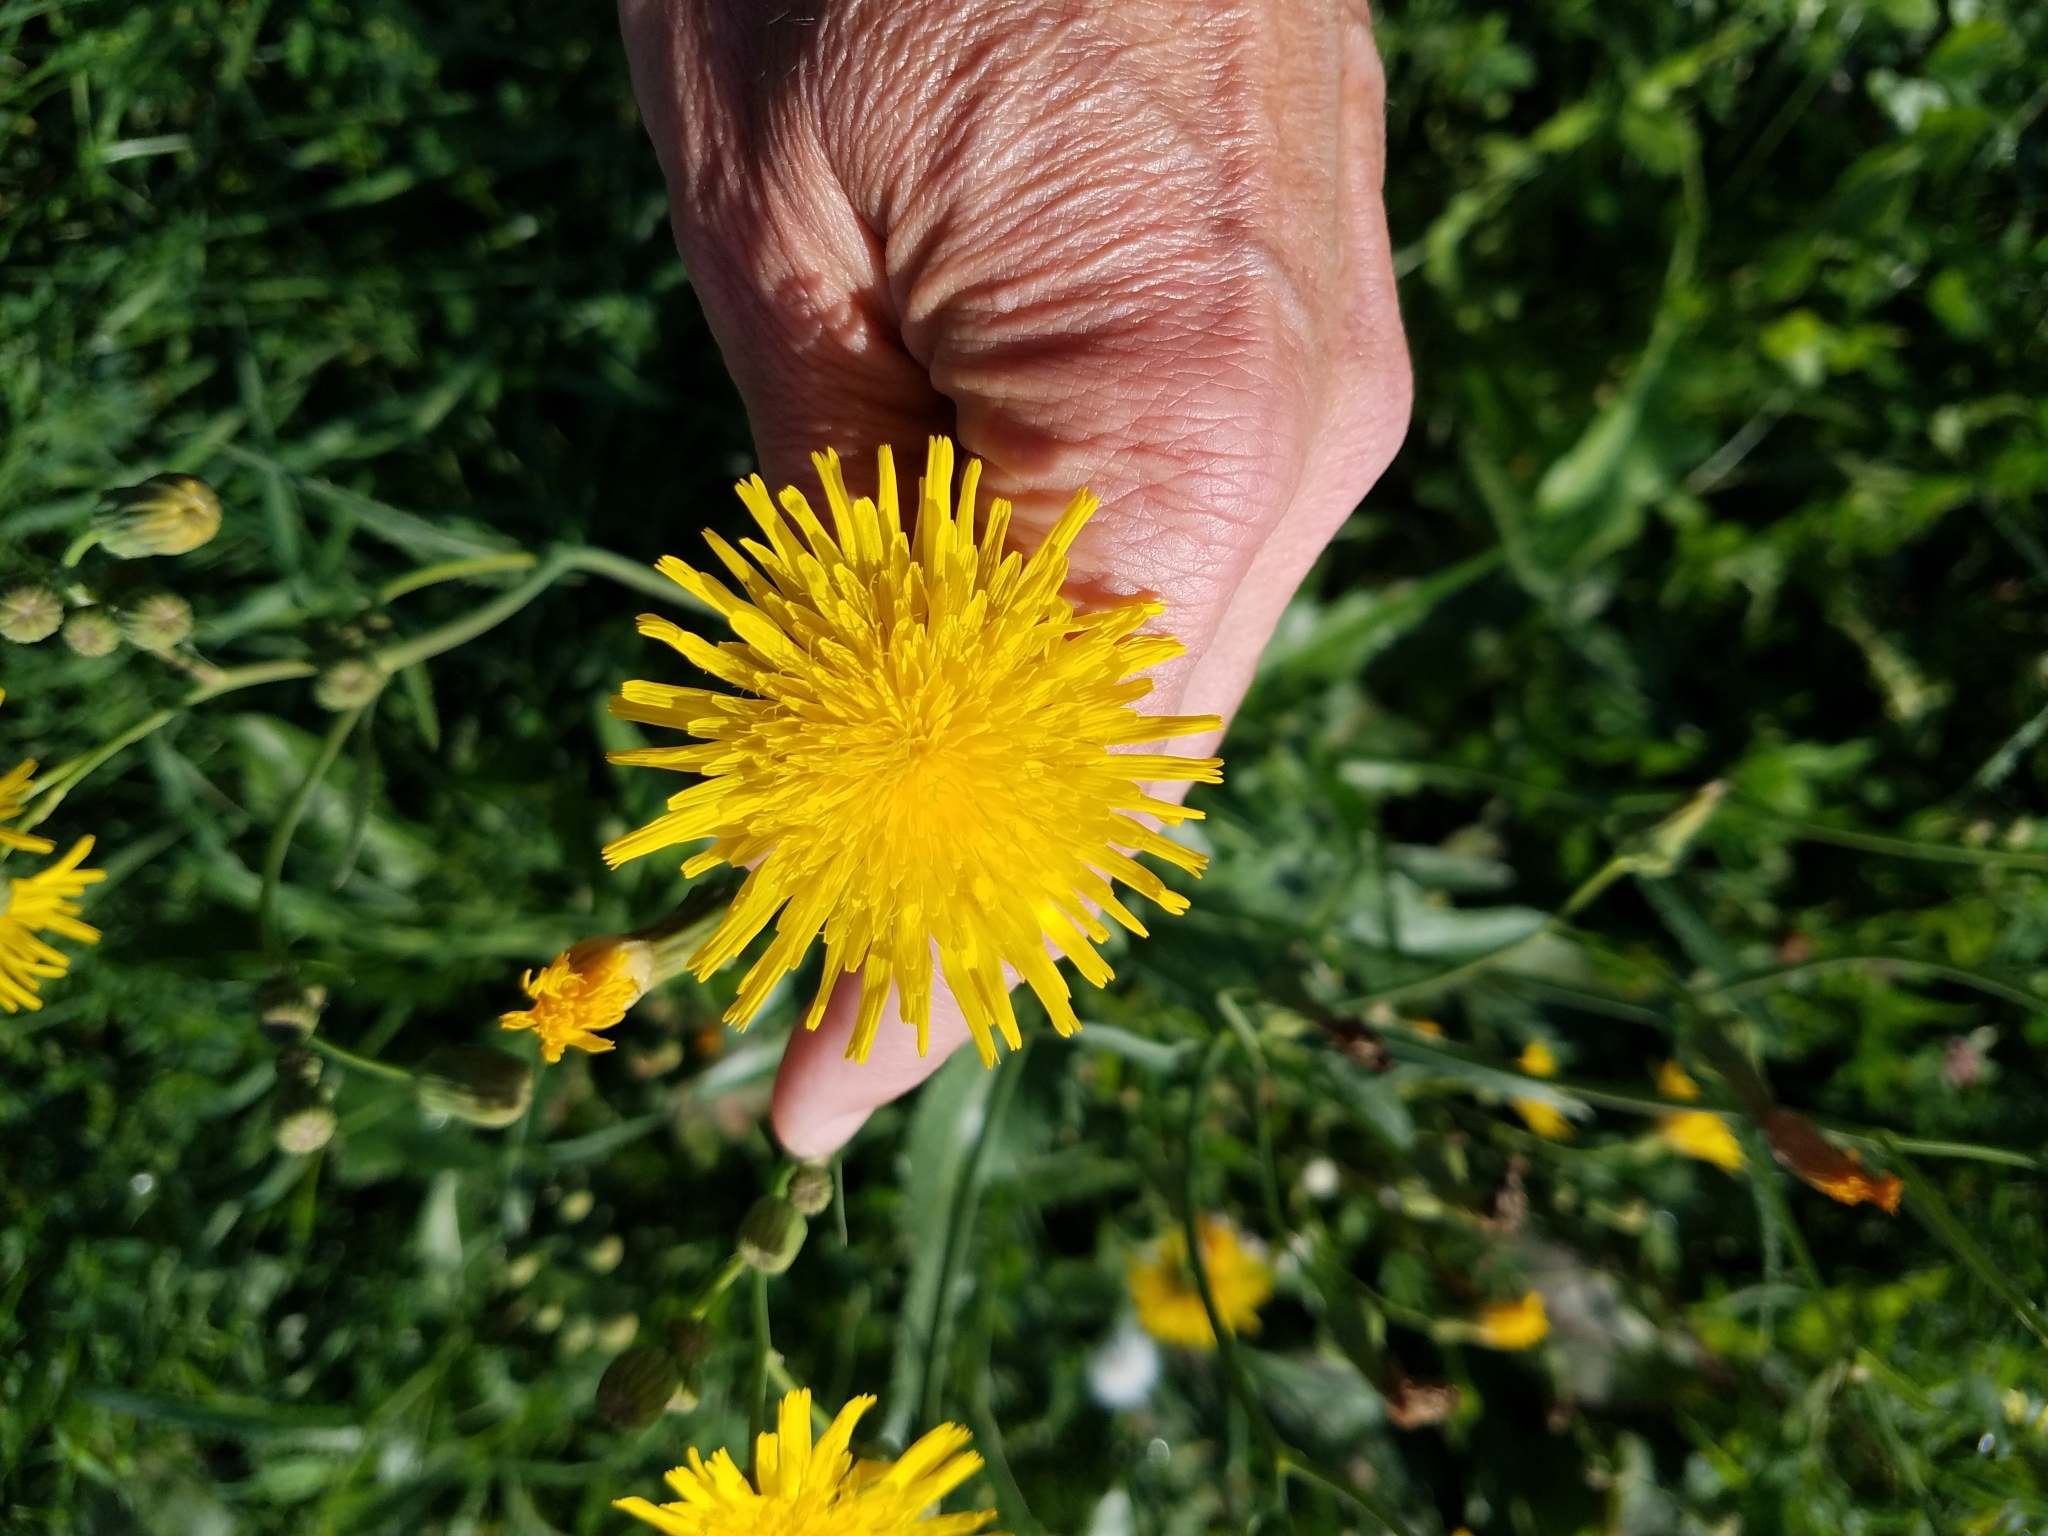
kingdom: Plantae
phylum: Tracheophyta
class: Magnoliopsida
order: Asterales
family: Asteraceae
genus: Sonchus
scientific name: Sonchus arvensis
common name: Perennial sow-thistle
